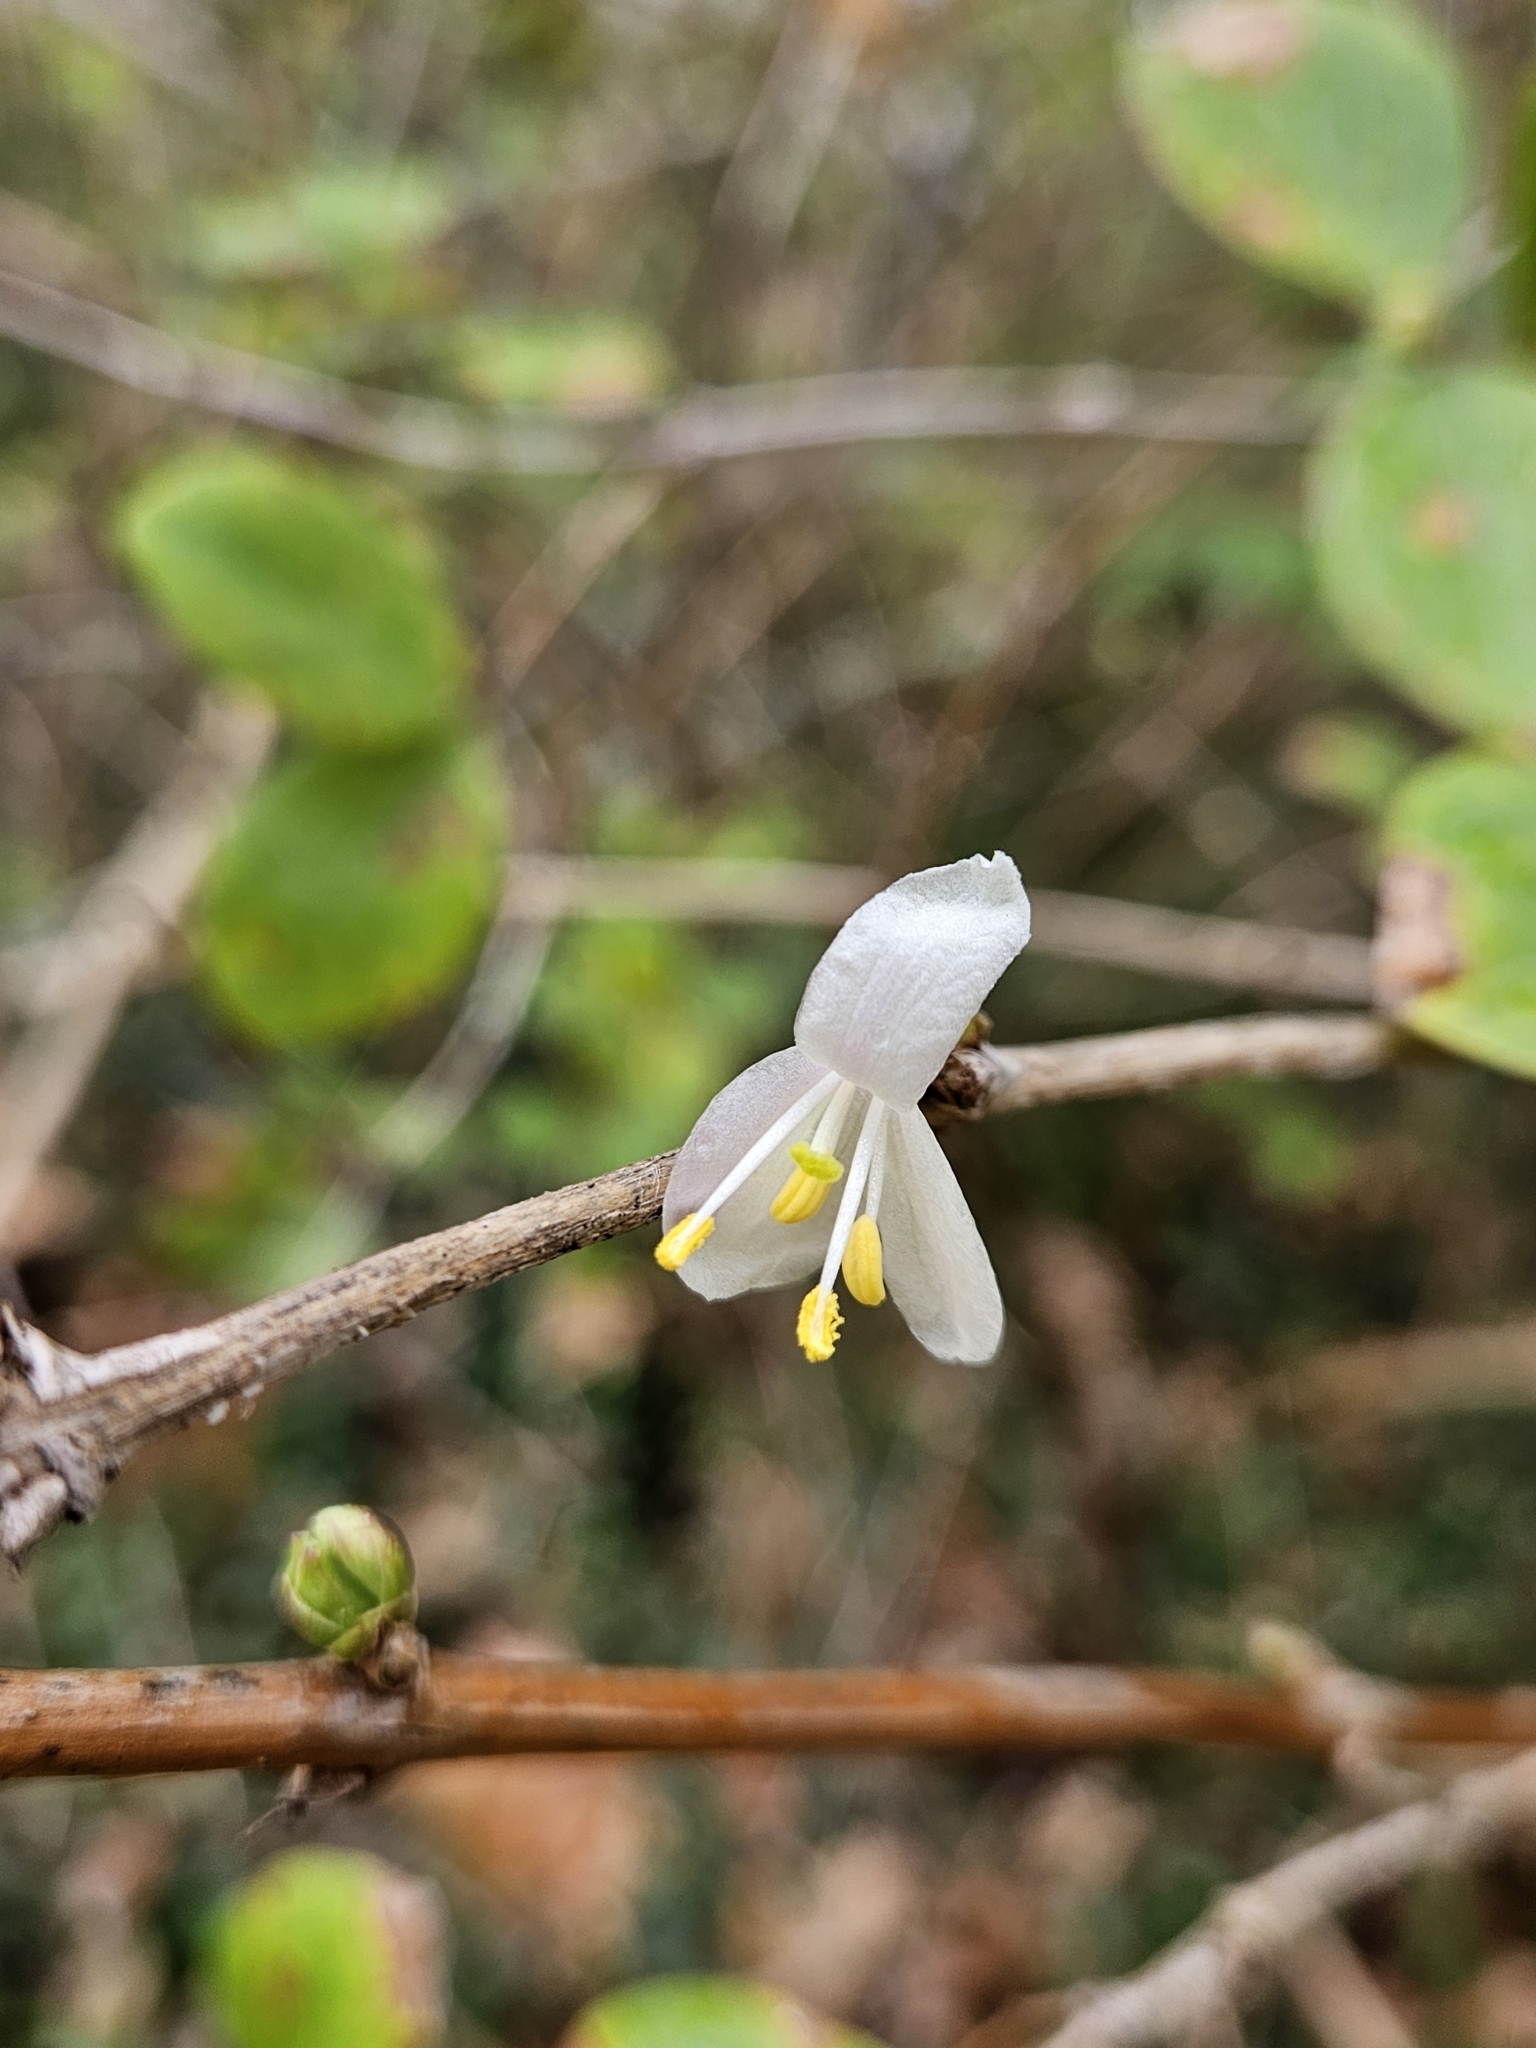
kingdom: Plantae
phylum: Tracheophyta
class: Magnoliopsida
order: Dipsacales
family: Caprifoliaceae
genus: Lonicera
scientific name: Lonicera fragrantissima
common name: Fragrant honeysuckle
